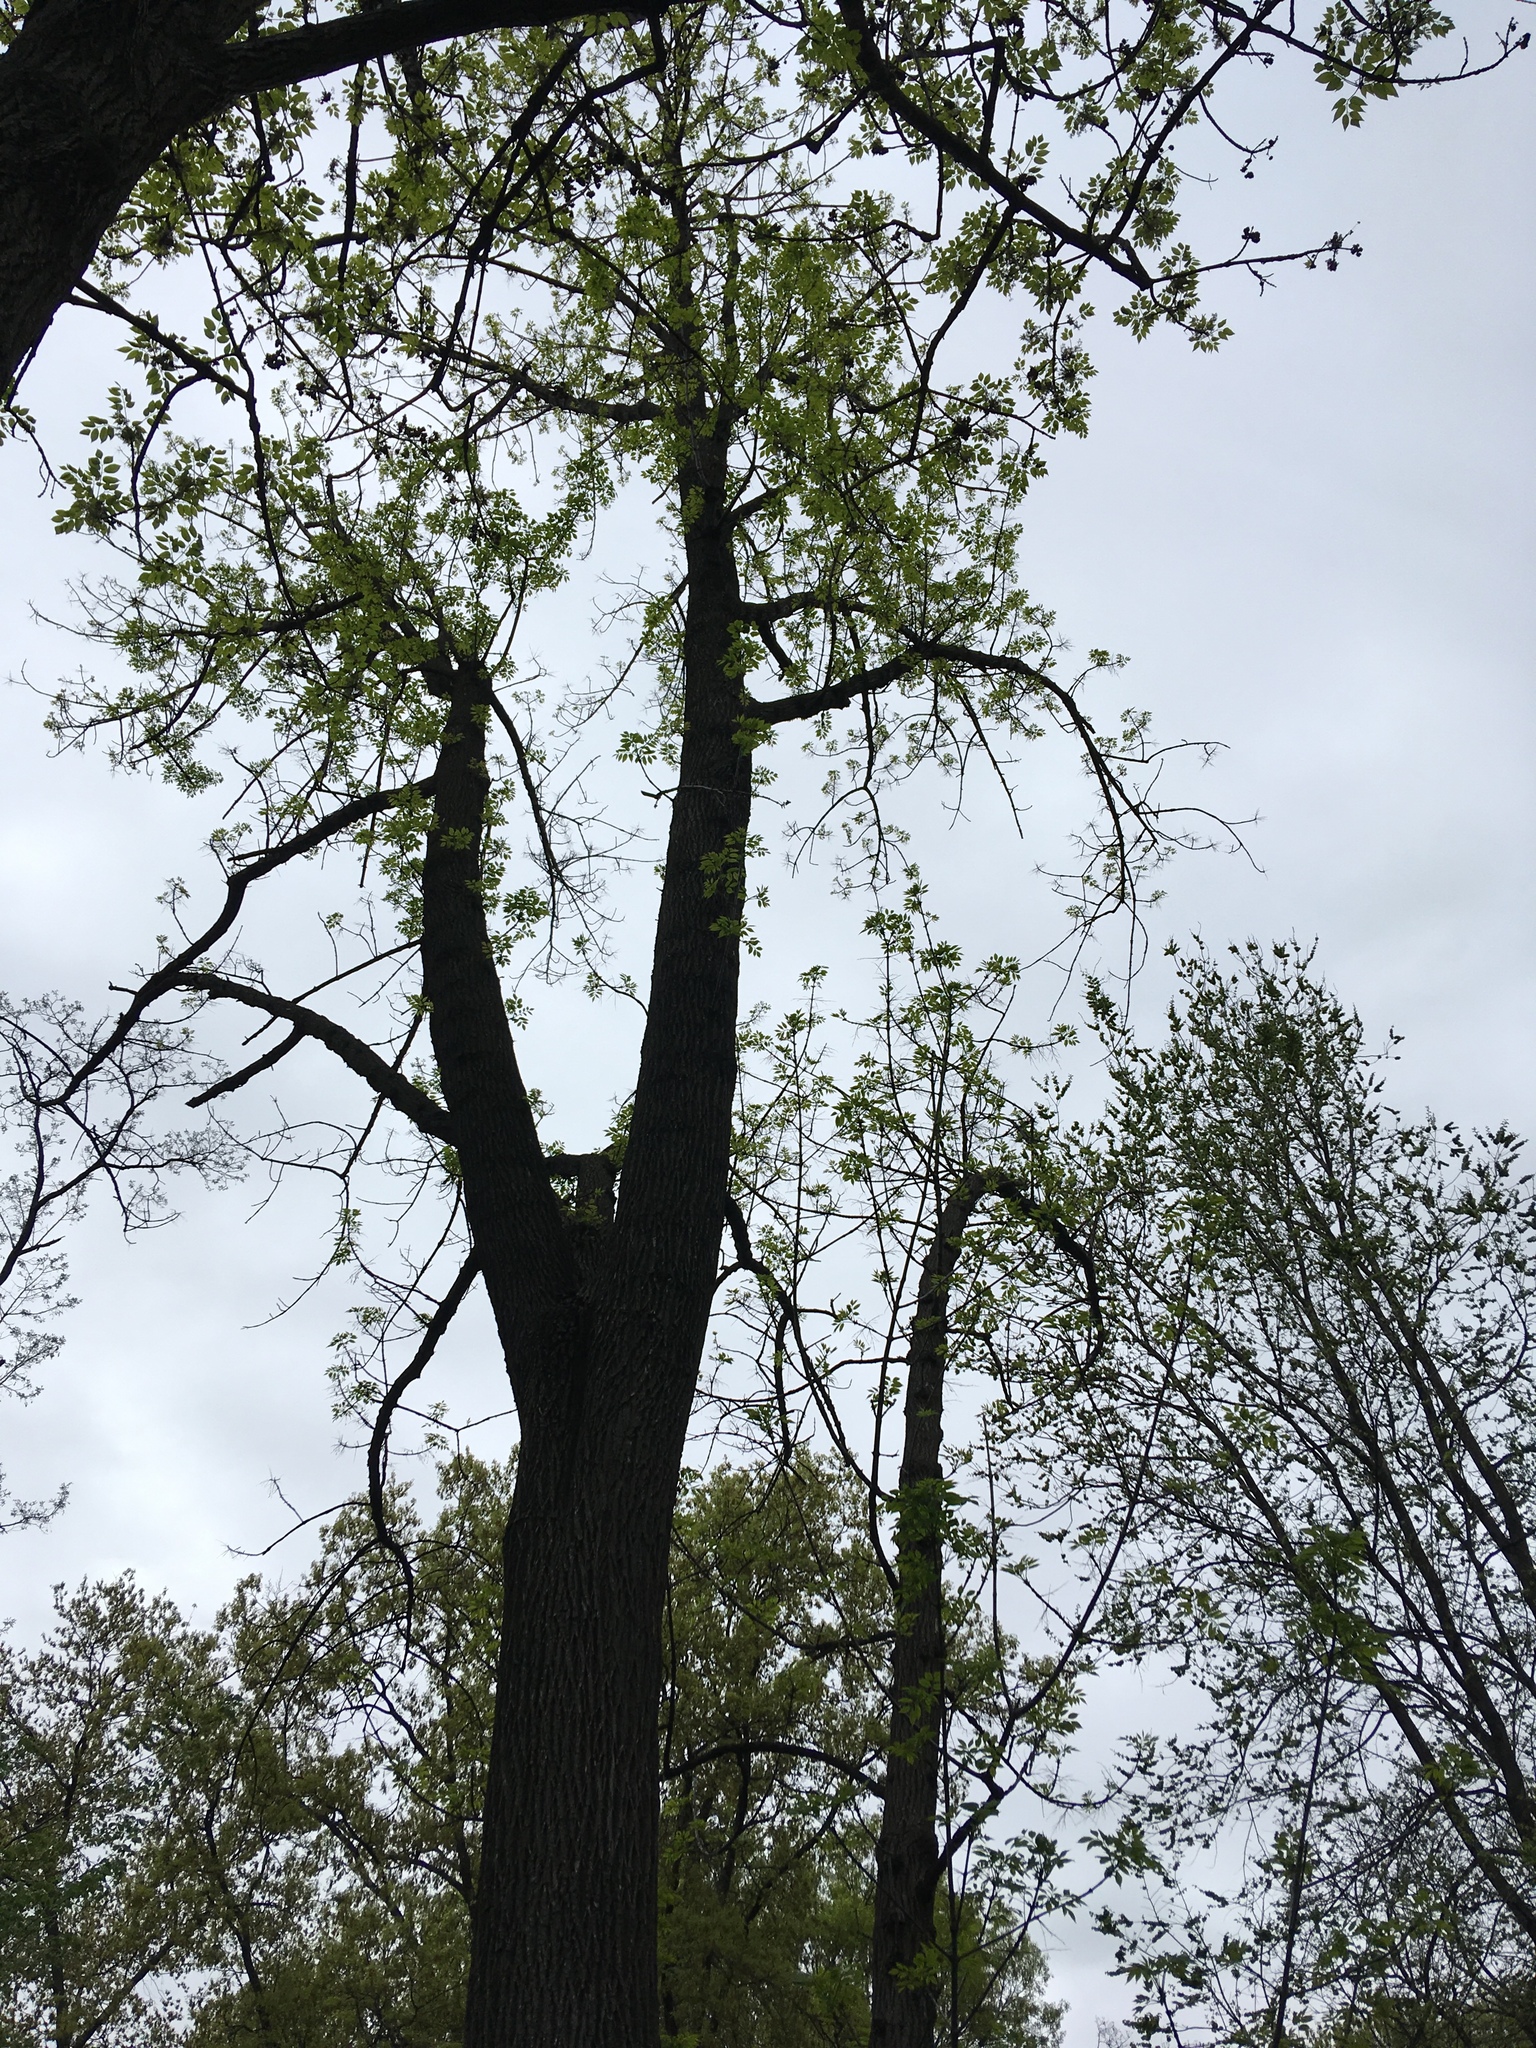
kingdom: Plantae
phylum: Tracheophyta
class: Magnoliopsida
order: Lamiales
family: Oleaceae
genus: Fraxinus
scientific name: Fraxinus americana
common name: White ash
